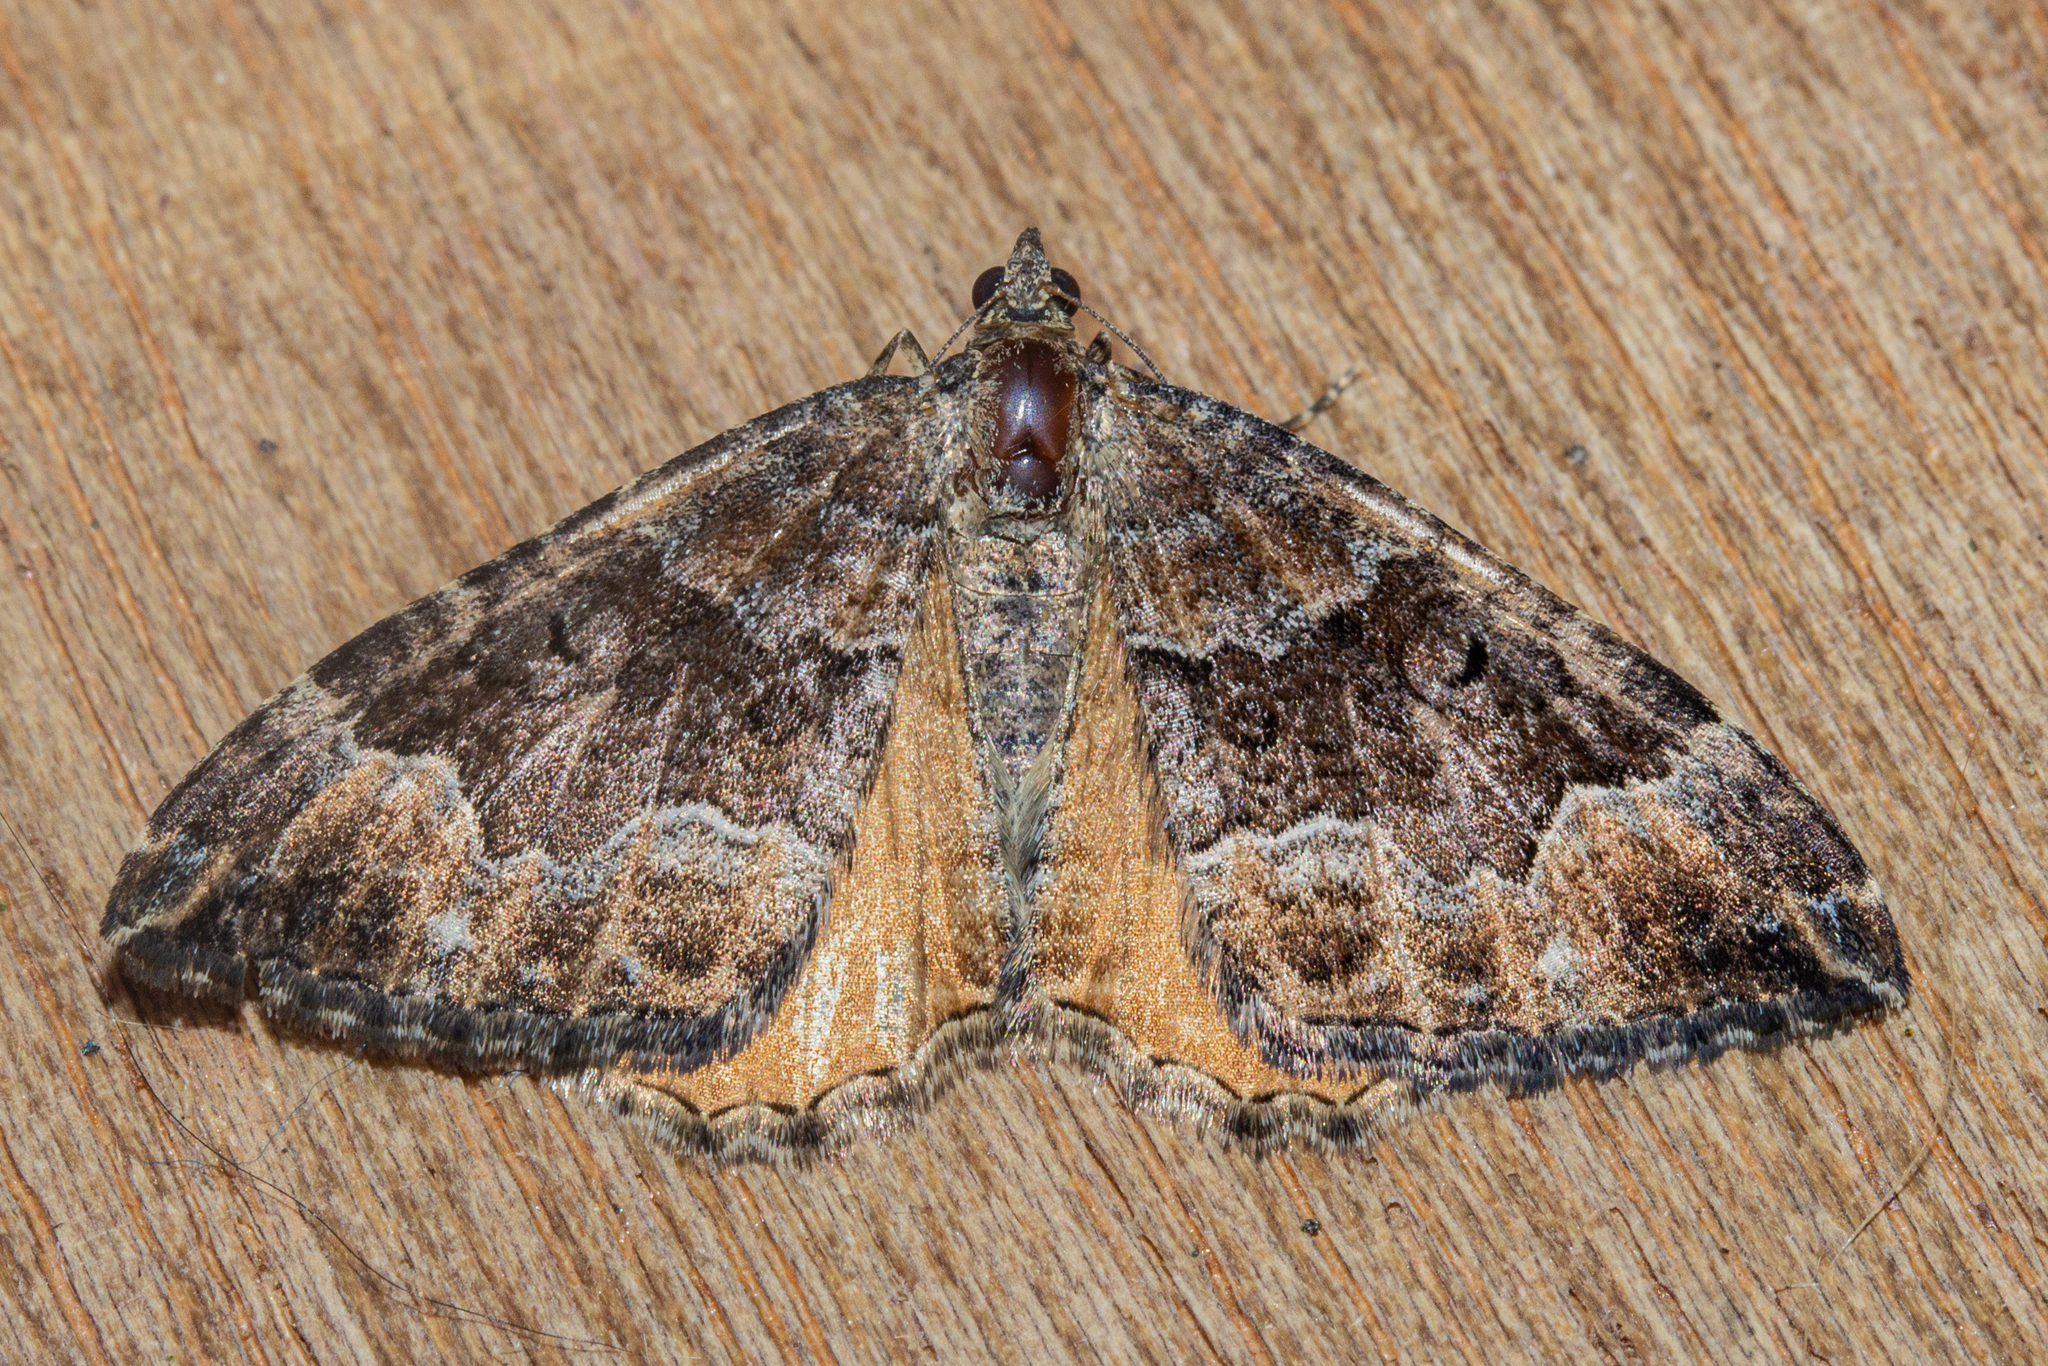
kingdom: Animalia
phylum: Arthropoda
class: Insecta
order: Lepidoptera
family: Geometridae
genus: Hydriomena
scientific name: Hydriomena deltoidata
